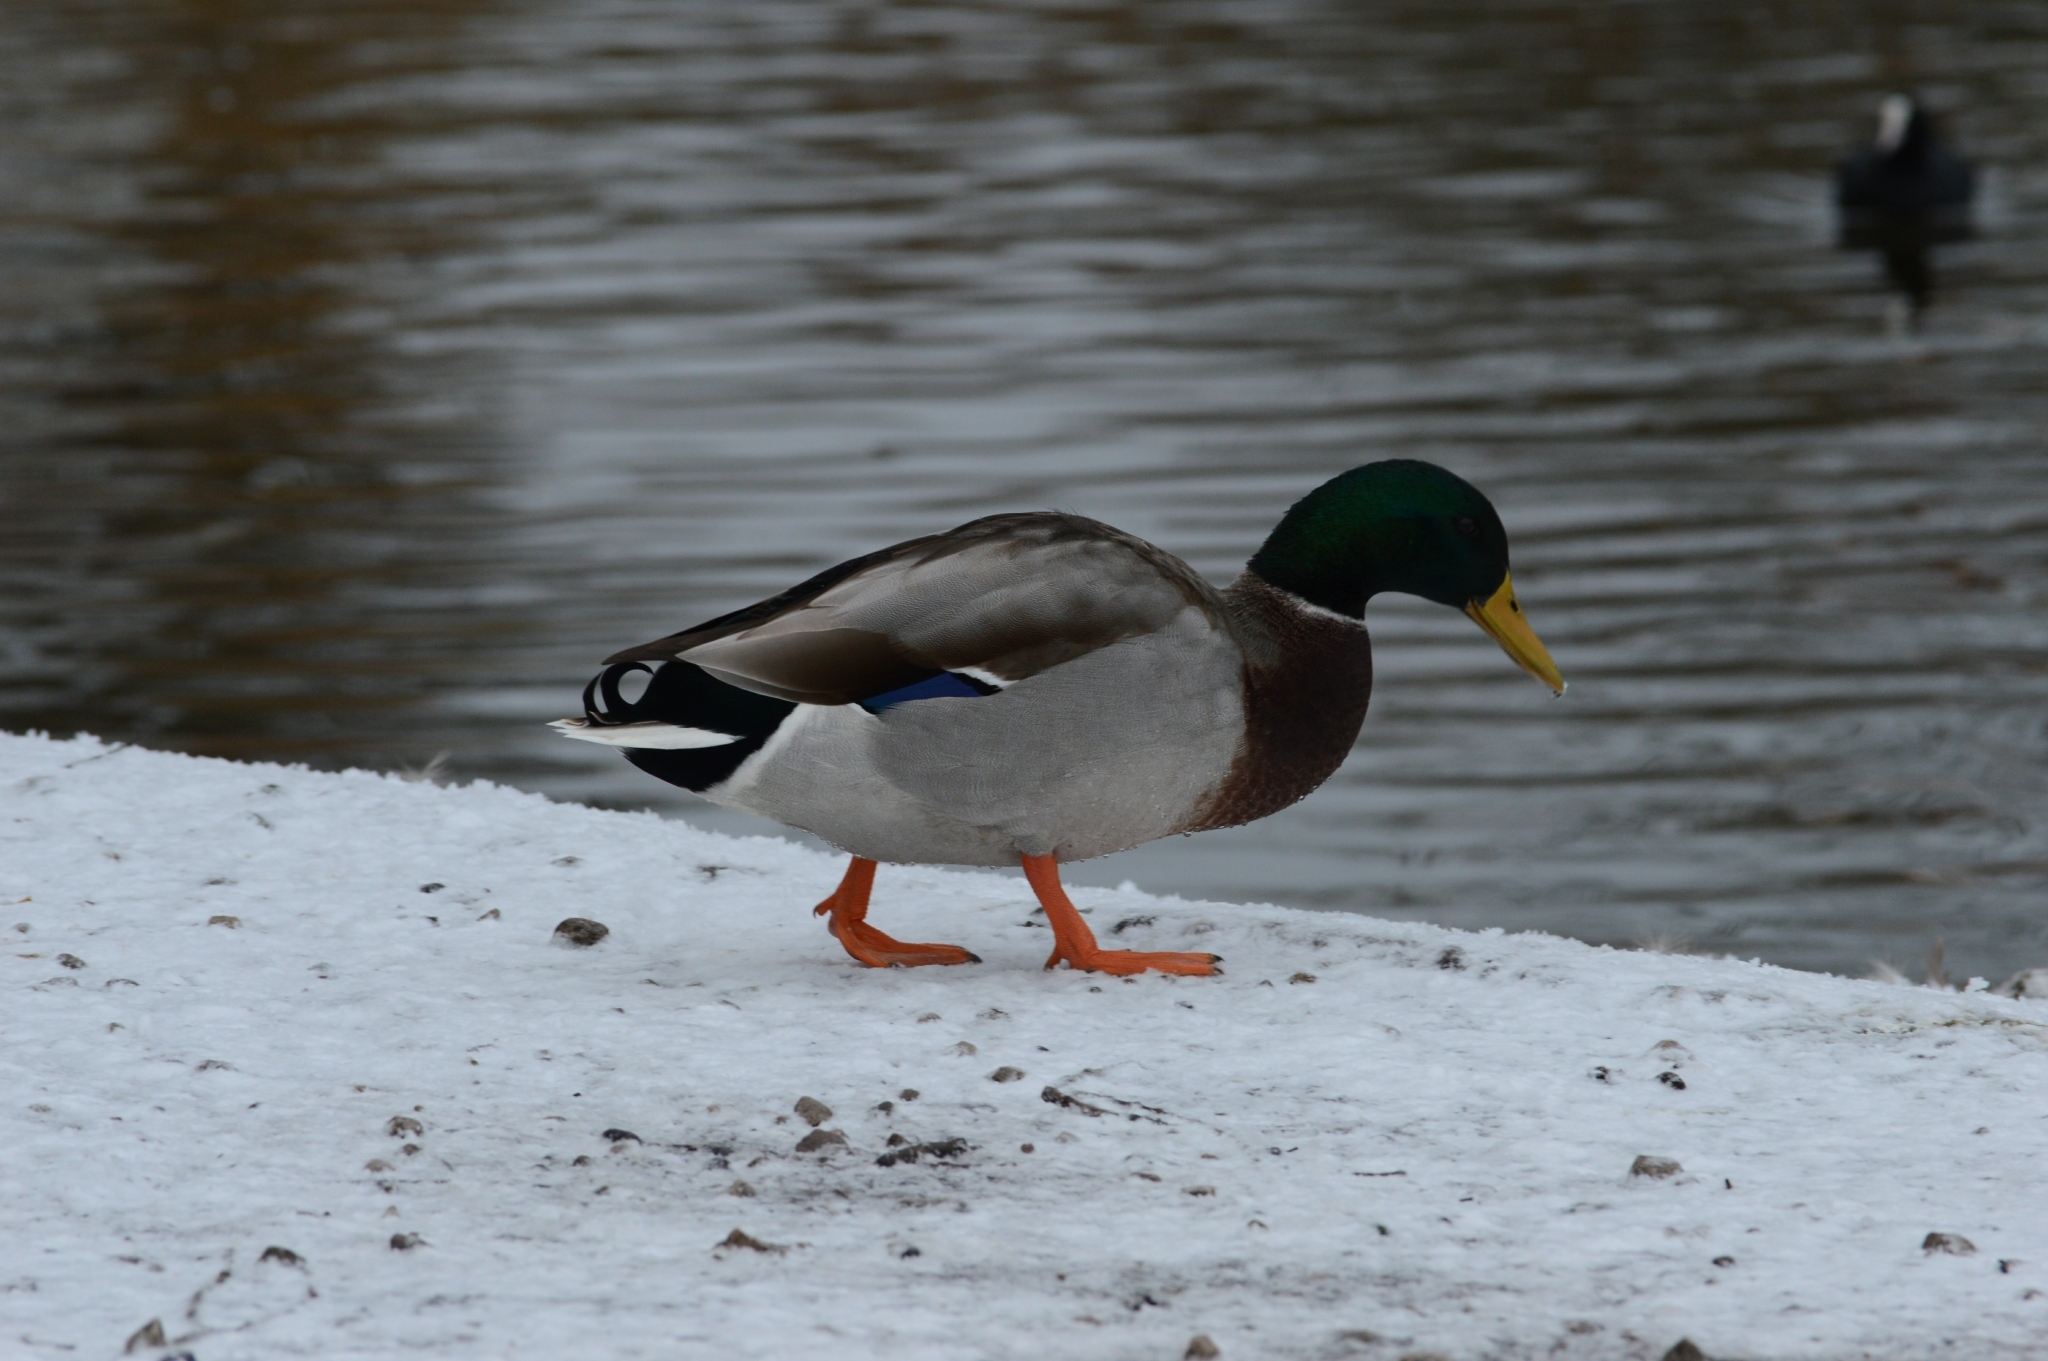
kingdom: Animalia
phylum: Chordata
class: Aves
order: Anseriformes
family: Anatidae
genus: Anas
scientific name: Anas platyrhynchos
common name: Mallard
